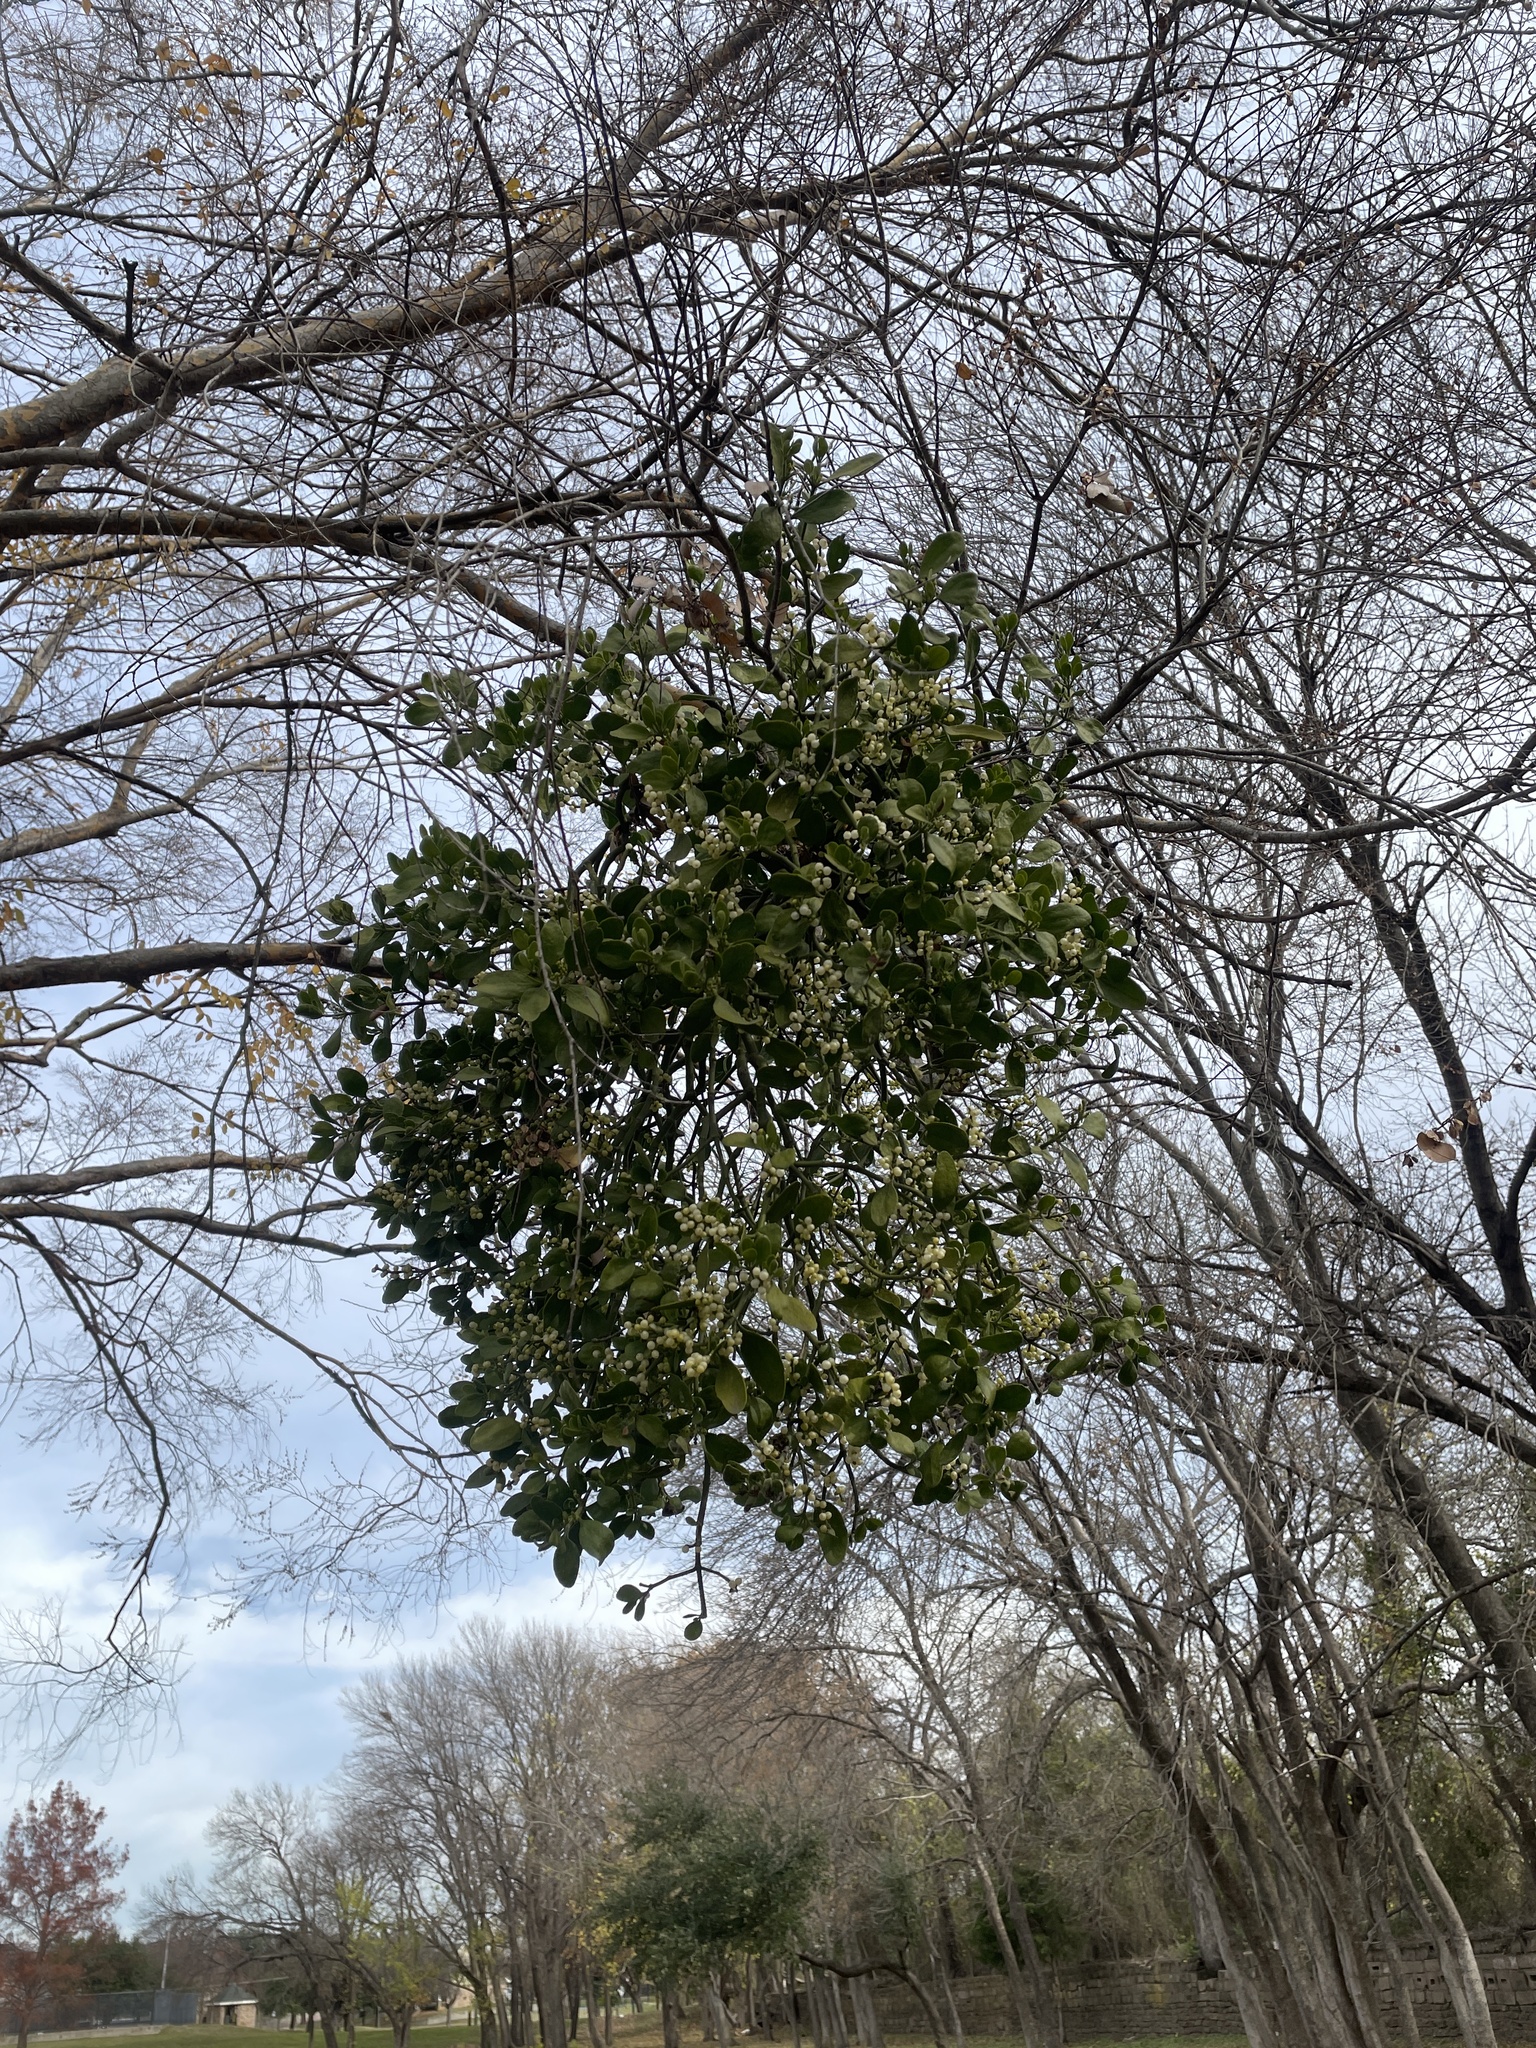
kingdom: Plantae
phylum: Tracheophyta
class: Magnoliopsida
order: Santalales
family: Viscaceae
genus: Phoradendron
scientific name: Phoradendron leucarpum
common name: Pacific mistletoe
